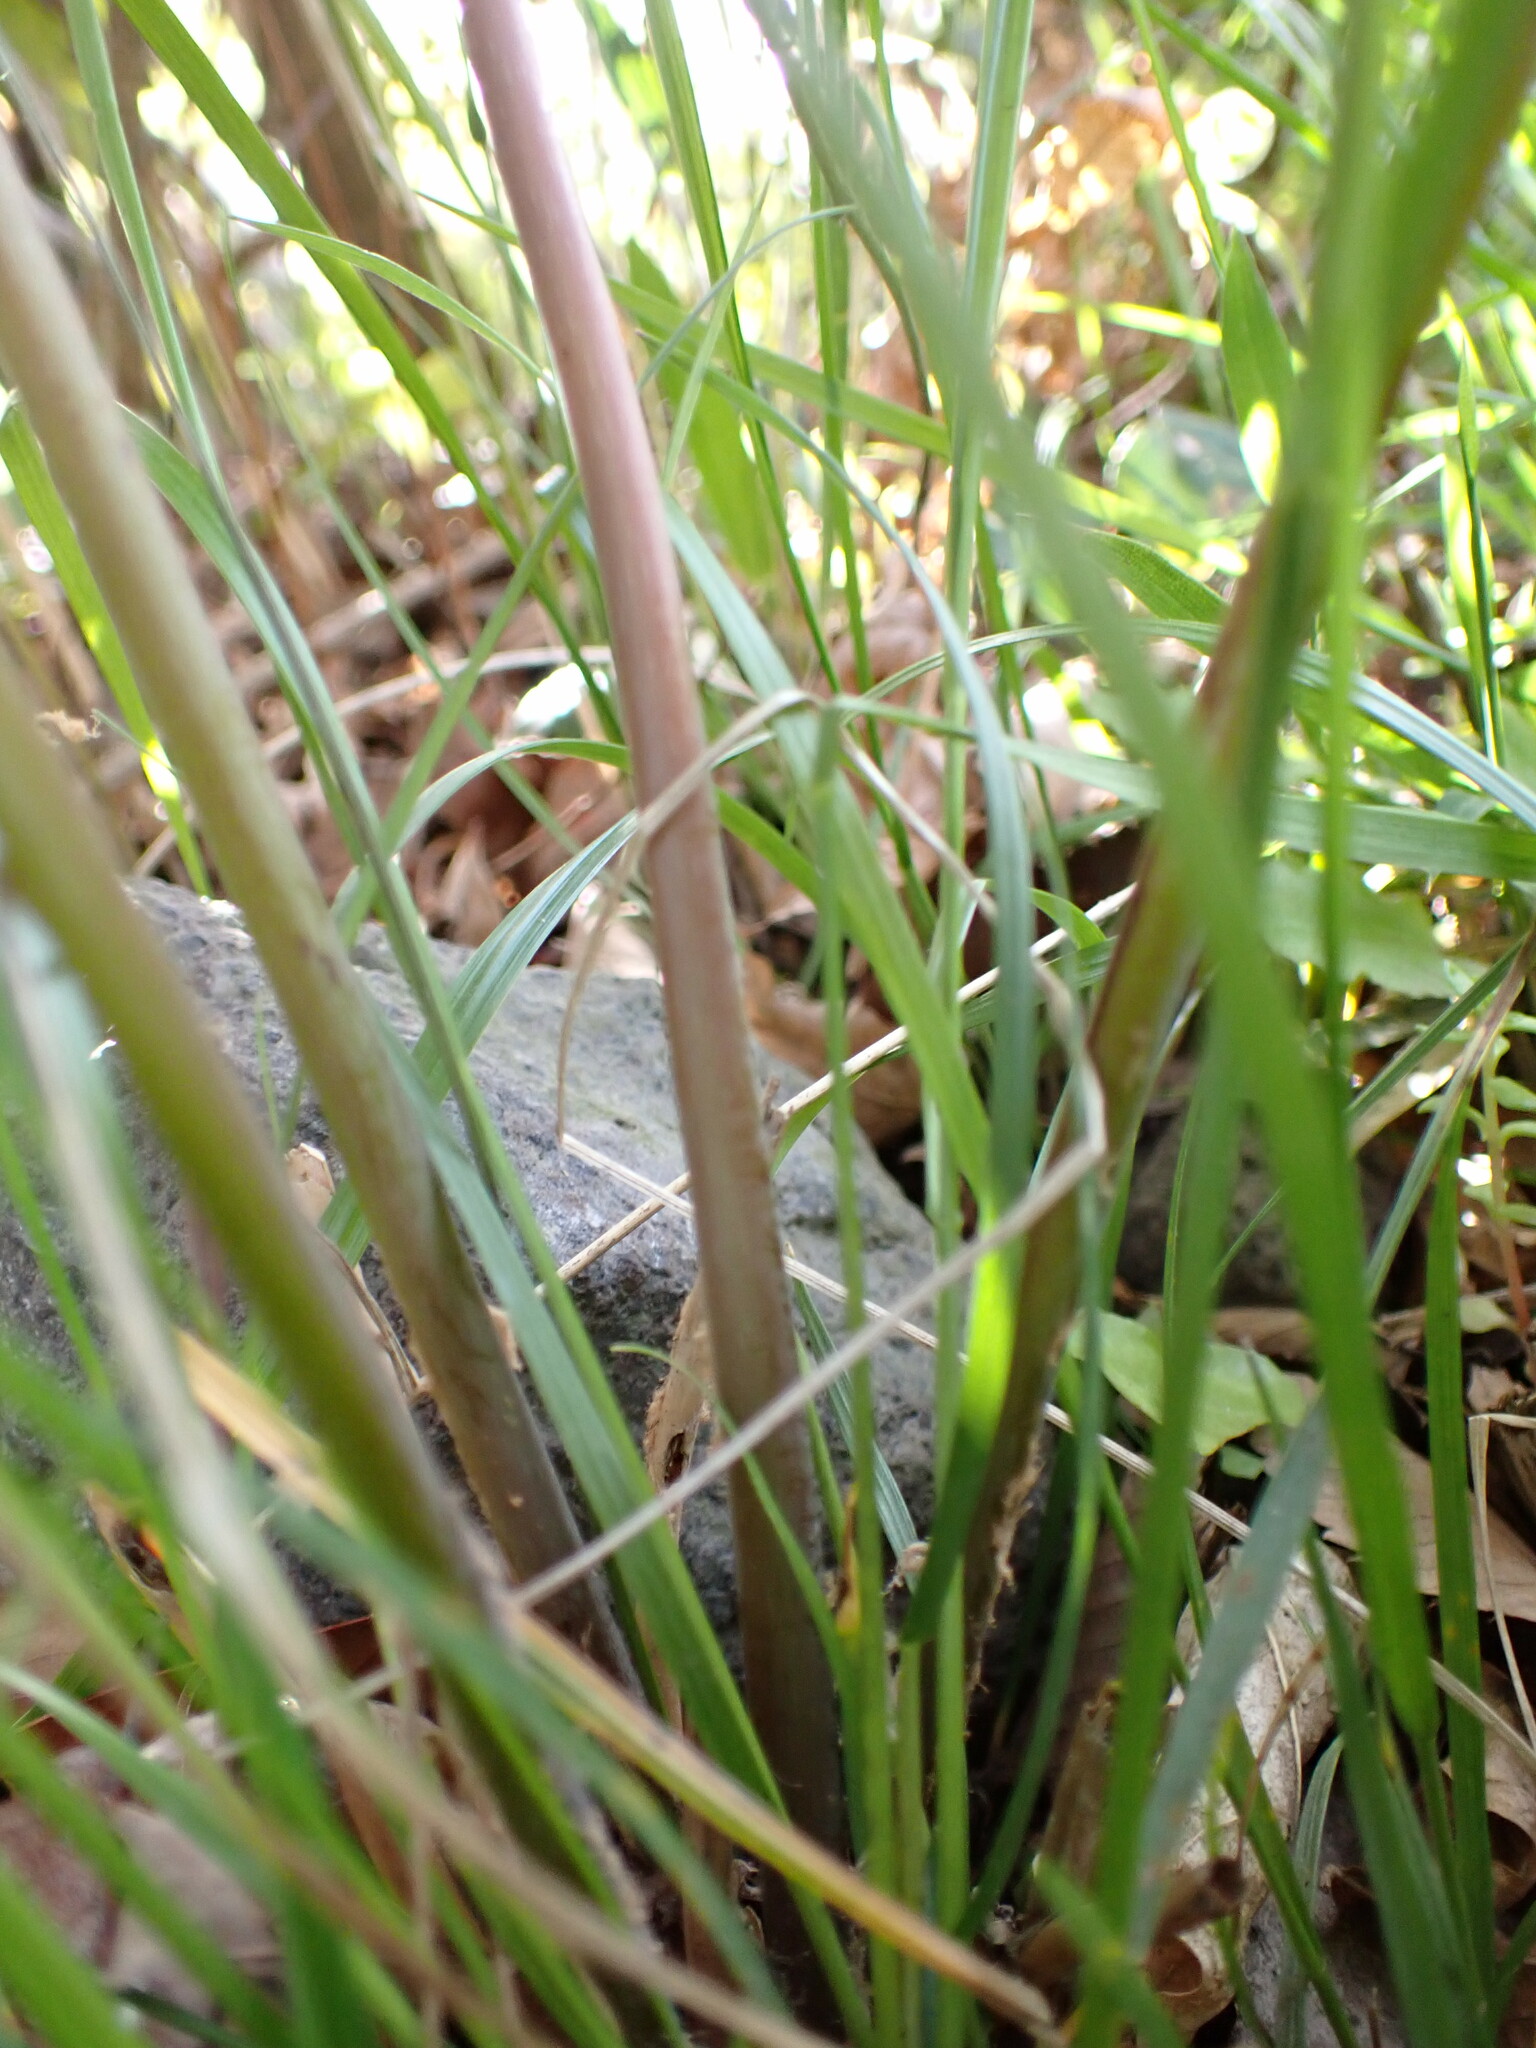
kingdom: Plantae
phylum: Tracheophyta
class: Polypodiopsida
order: Osmundales
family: Osmundaceae
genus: Osmunda
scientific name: Osmunda japonica
